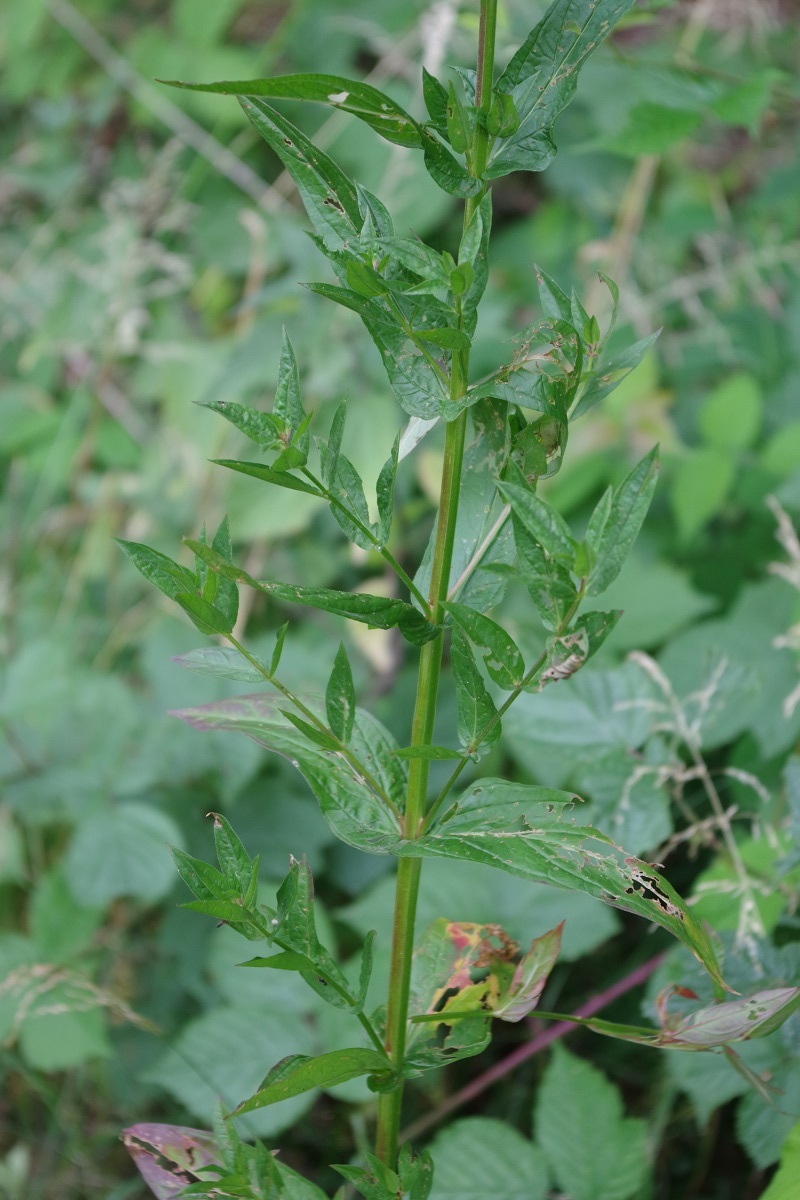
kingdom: Plantae
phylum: Tracheophyta
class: Magnoliopsida
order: Myrtales
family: Lythraceae
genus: Lythrum
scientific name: Lythrum salicaria
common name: Purple loosestrife
